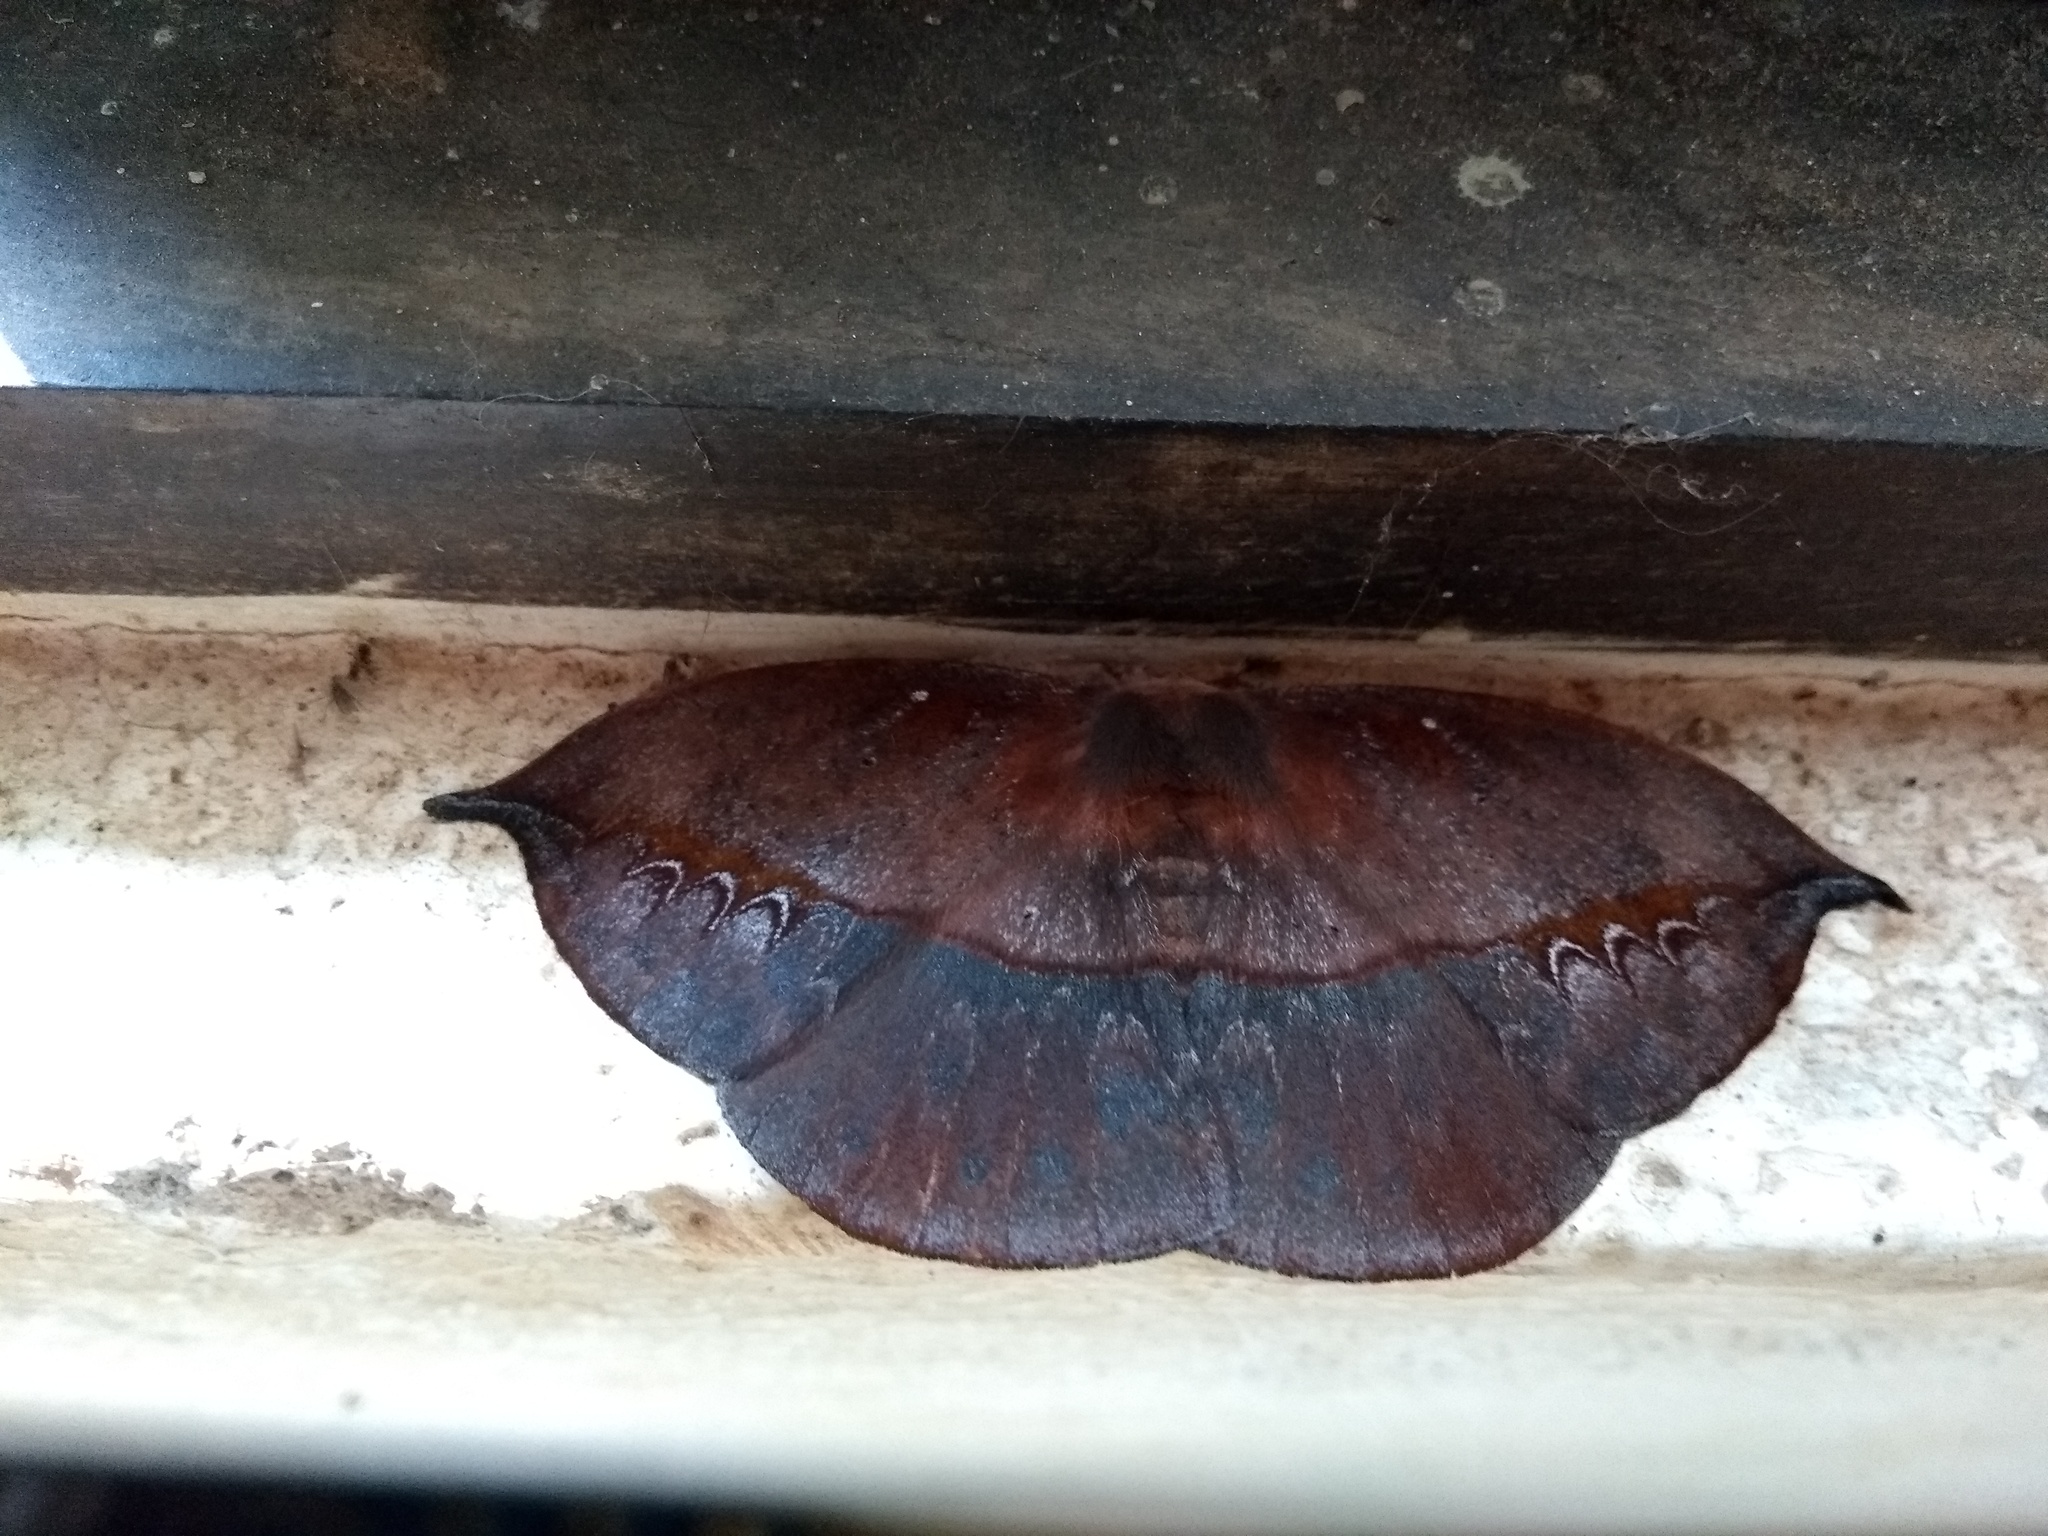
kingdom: Animalia
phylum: Arthropoda
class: Insecta
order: Lepidoptera
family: Saturniidae
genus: Oxytenis
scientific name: Oxytenis nubila
